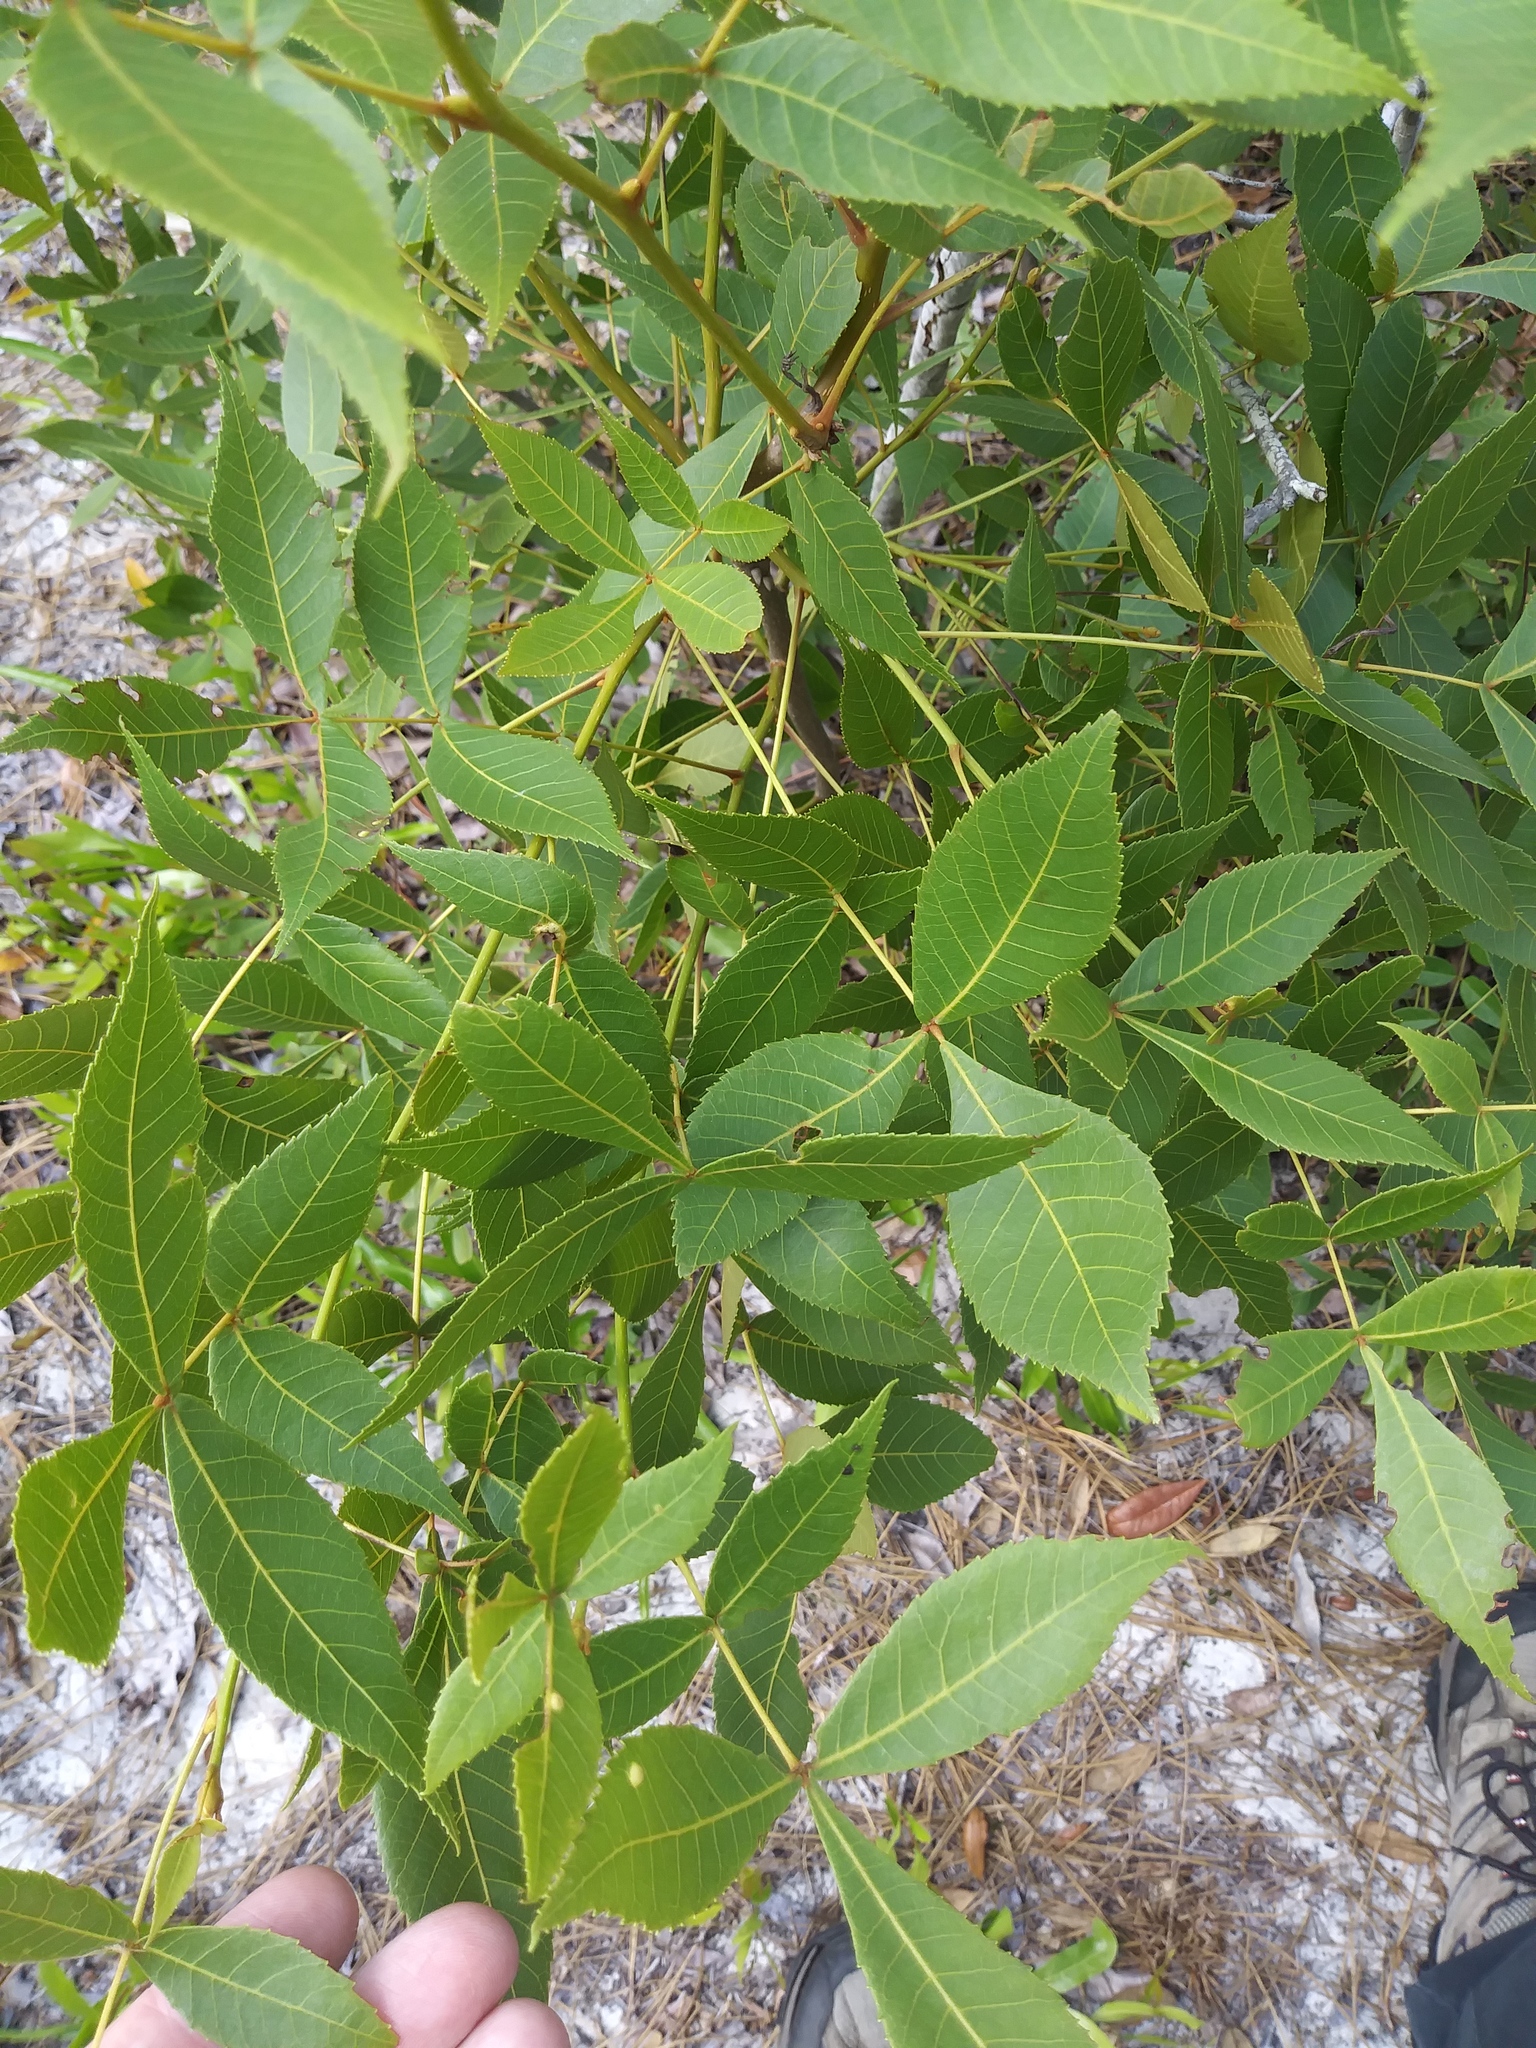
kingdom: Plantae
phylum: Tracheophyta
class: Magnoliopsida
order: Fagales
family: Juglandaceae
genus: Carya
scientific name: Carya floridana
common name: Scrub hickory
